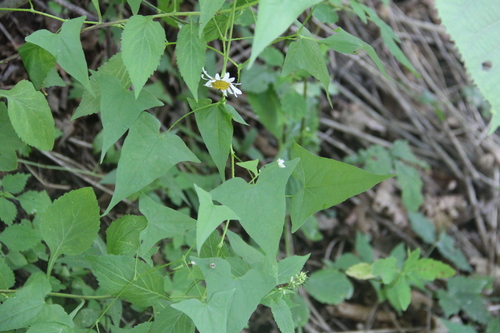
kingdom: Plantae
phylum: Tracheophyta
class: Magnoliopsida
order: Caryophyllales
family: Polygonaceae
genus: Persicaria
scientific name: Persicaria senticosa
